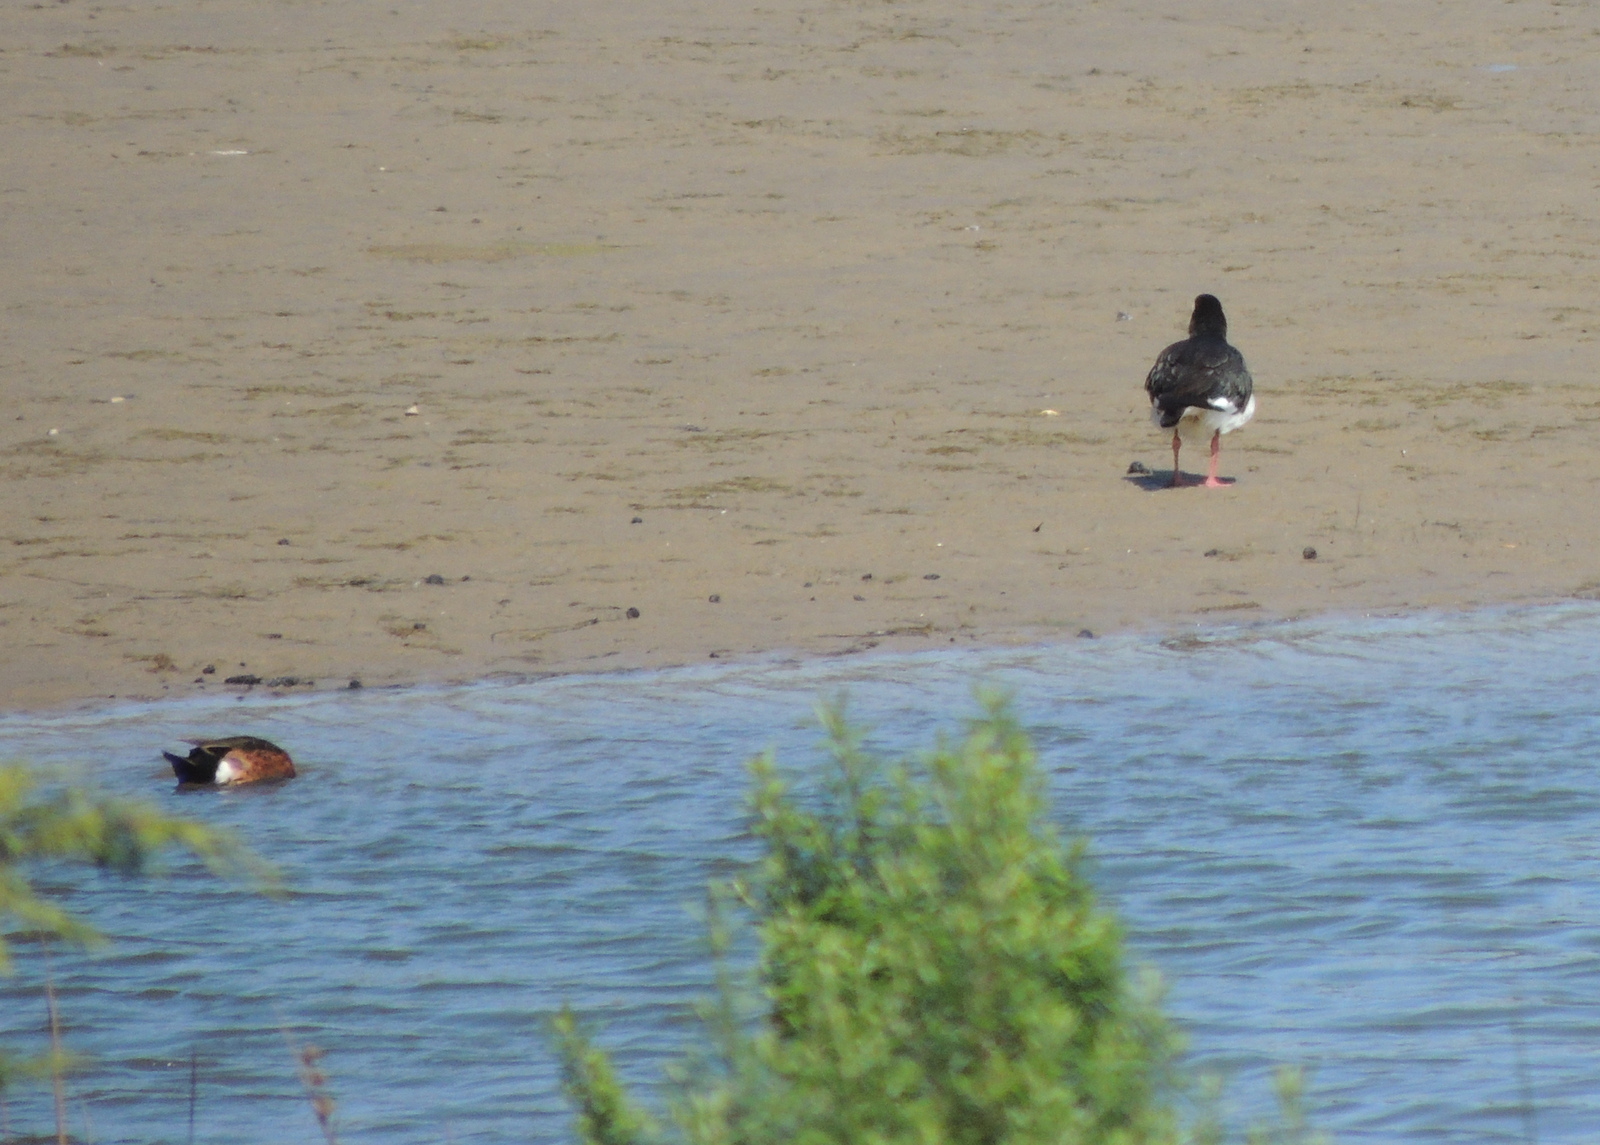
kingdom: Animalia
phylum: Chordata
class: Aves
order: Charadriiformes
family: Haematopodidae
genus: Haematopus
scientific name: Haematopus longirostris
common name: Pied oystercatcher
